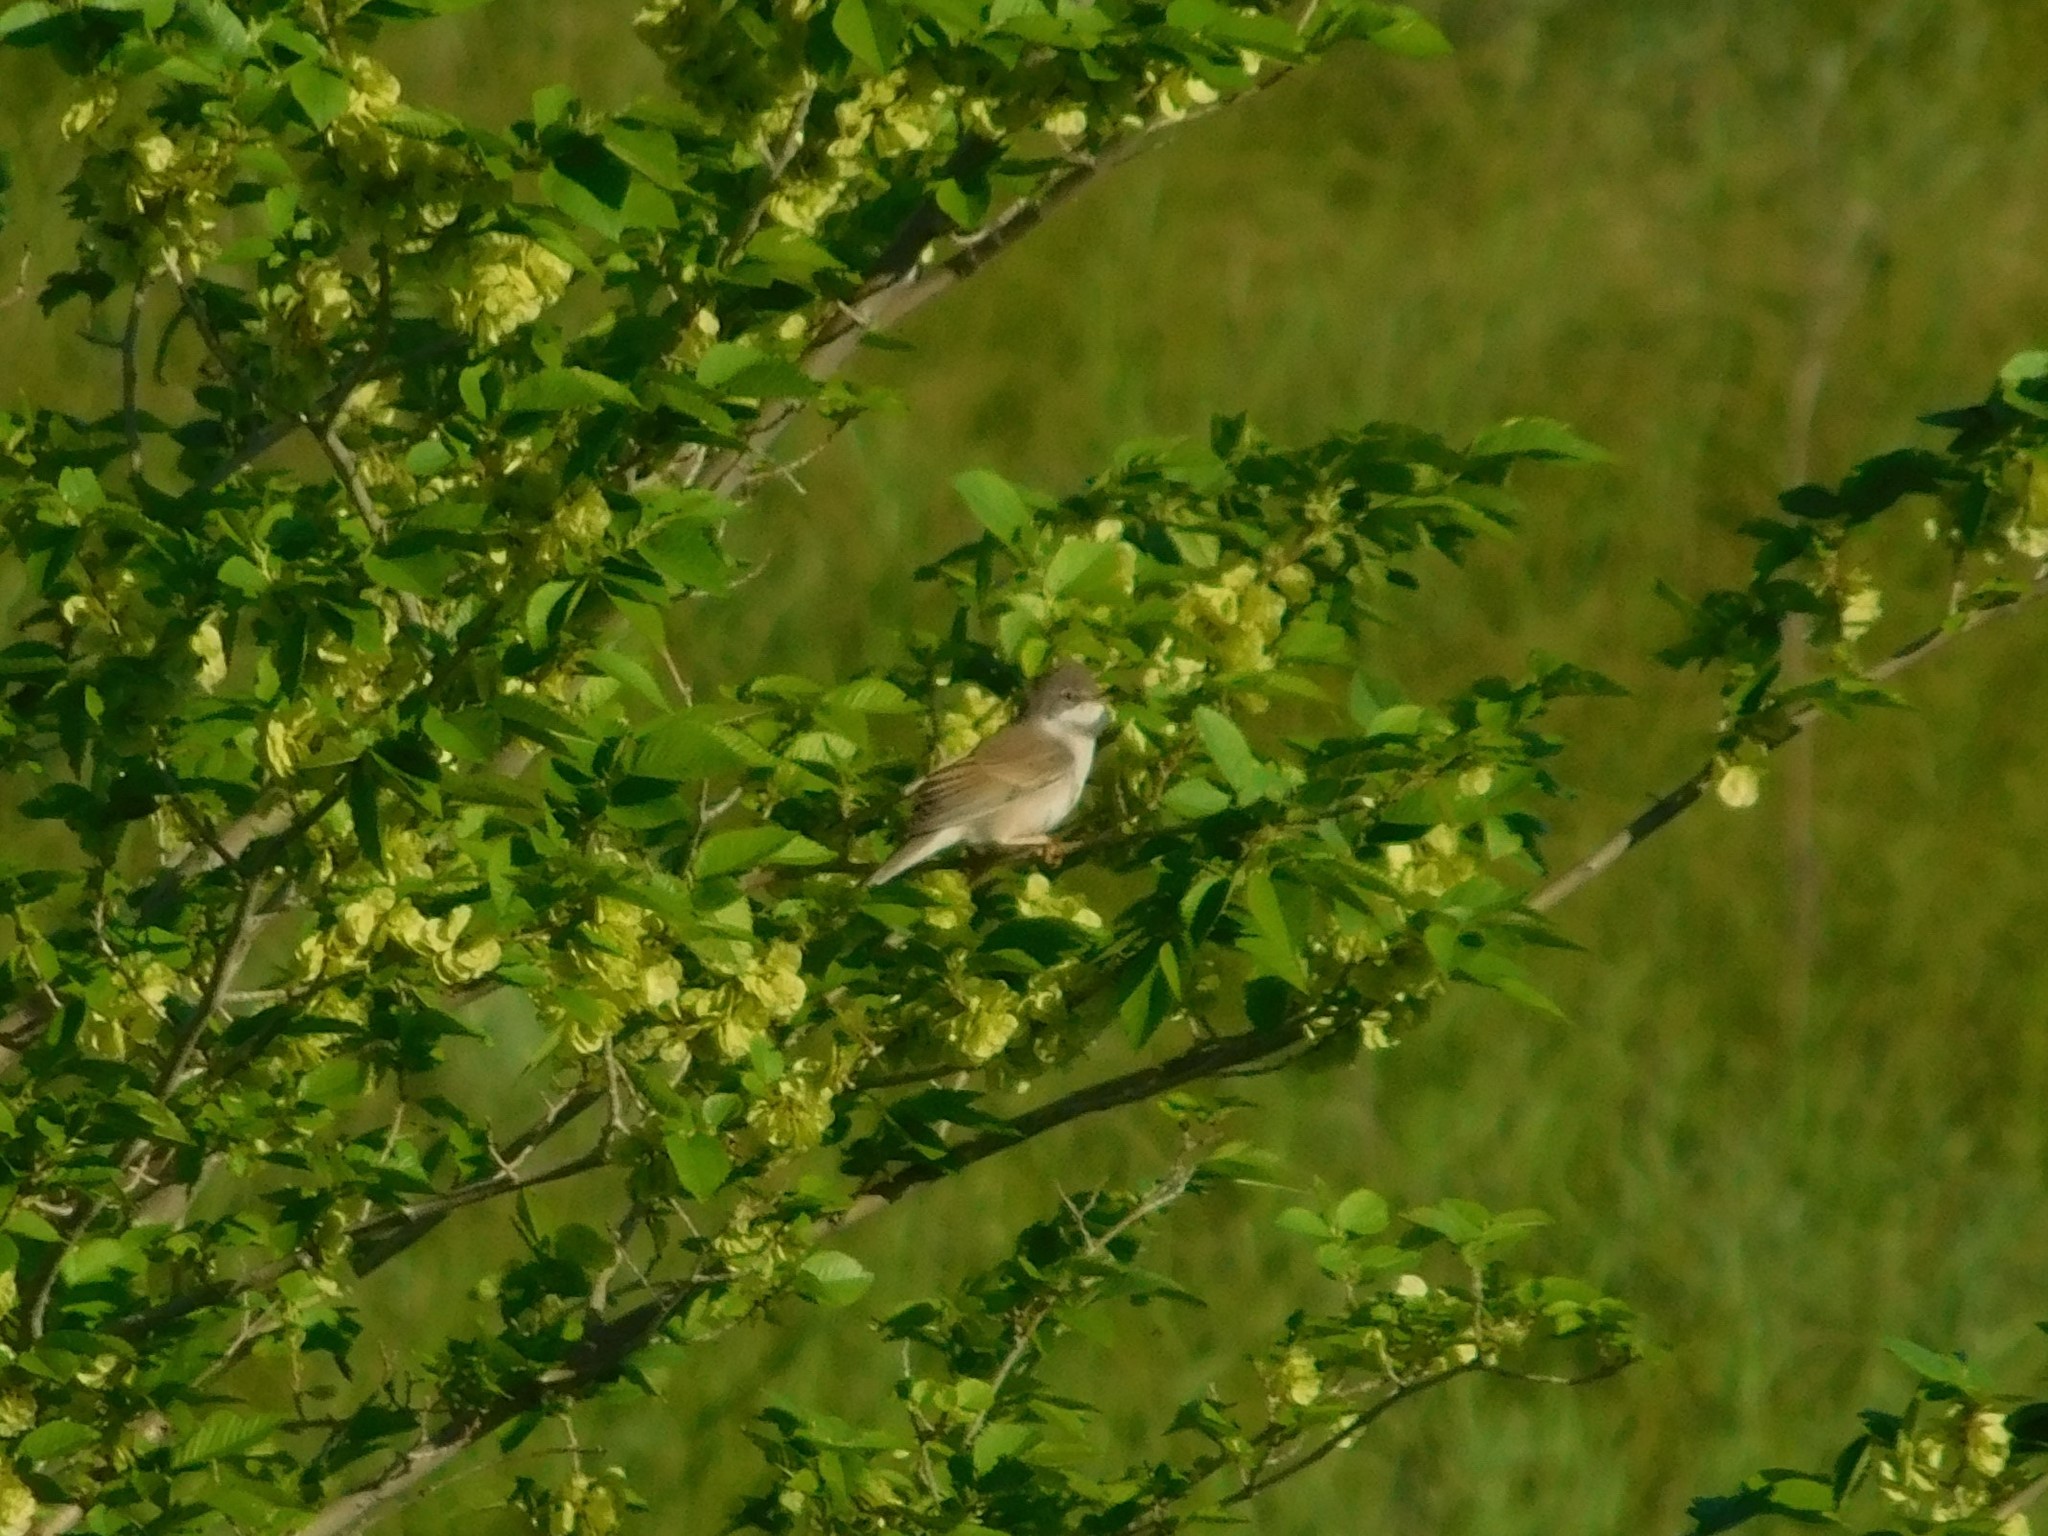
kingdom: Animalia
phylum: Chordata
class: Aves
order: Passeriformes
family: Sylviidae
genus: Sylvia
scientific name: Sylvia communis
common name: Common whitethroat
